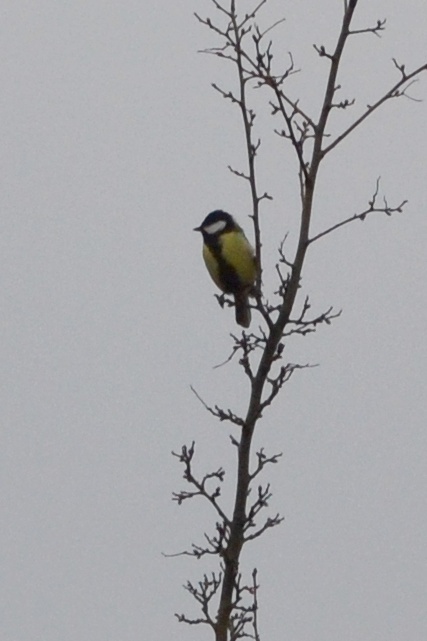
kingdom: Animalia
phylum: Chordata
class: Aves
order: Passeriformes
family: Paridae
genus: Parus
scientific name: Parus major
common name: Great tit
